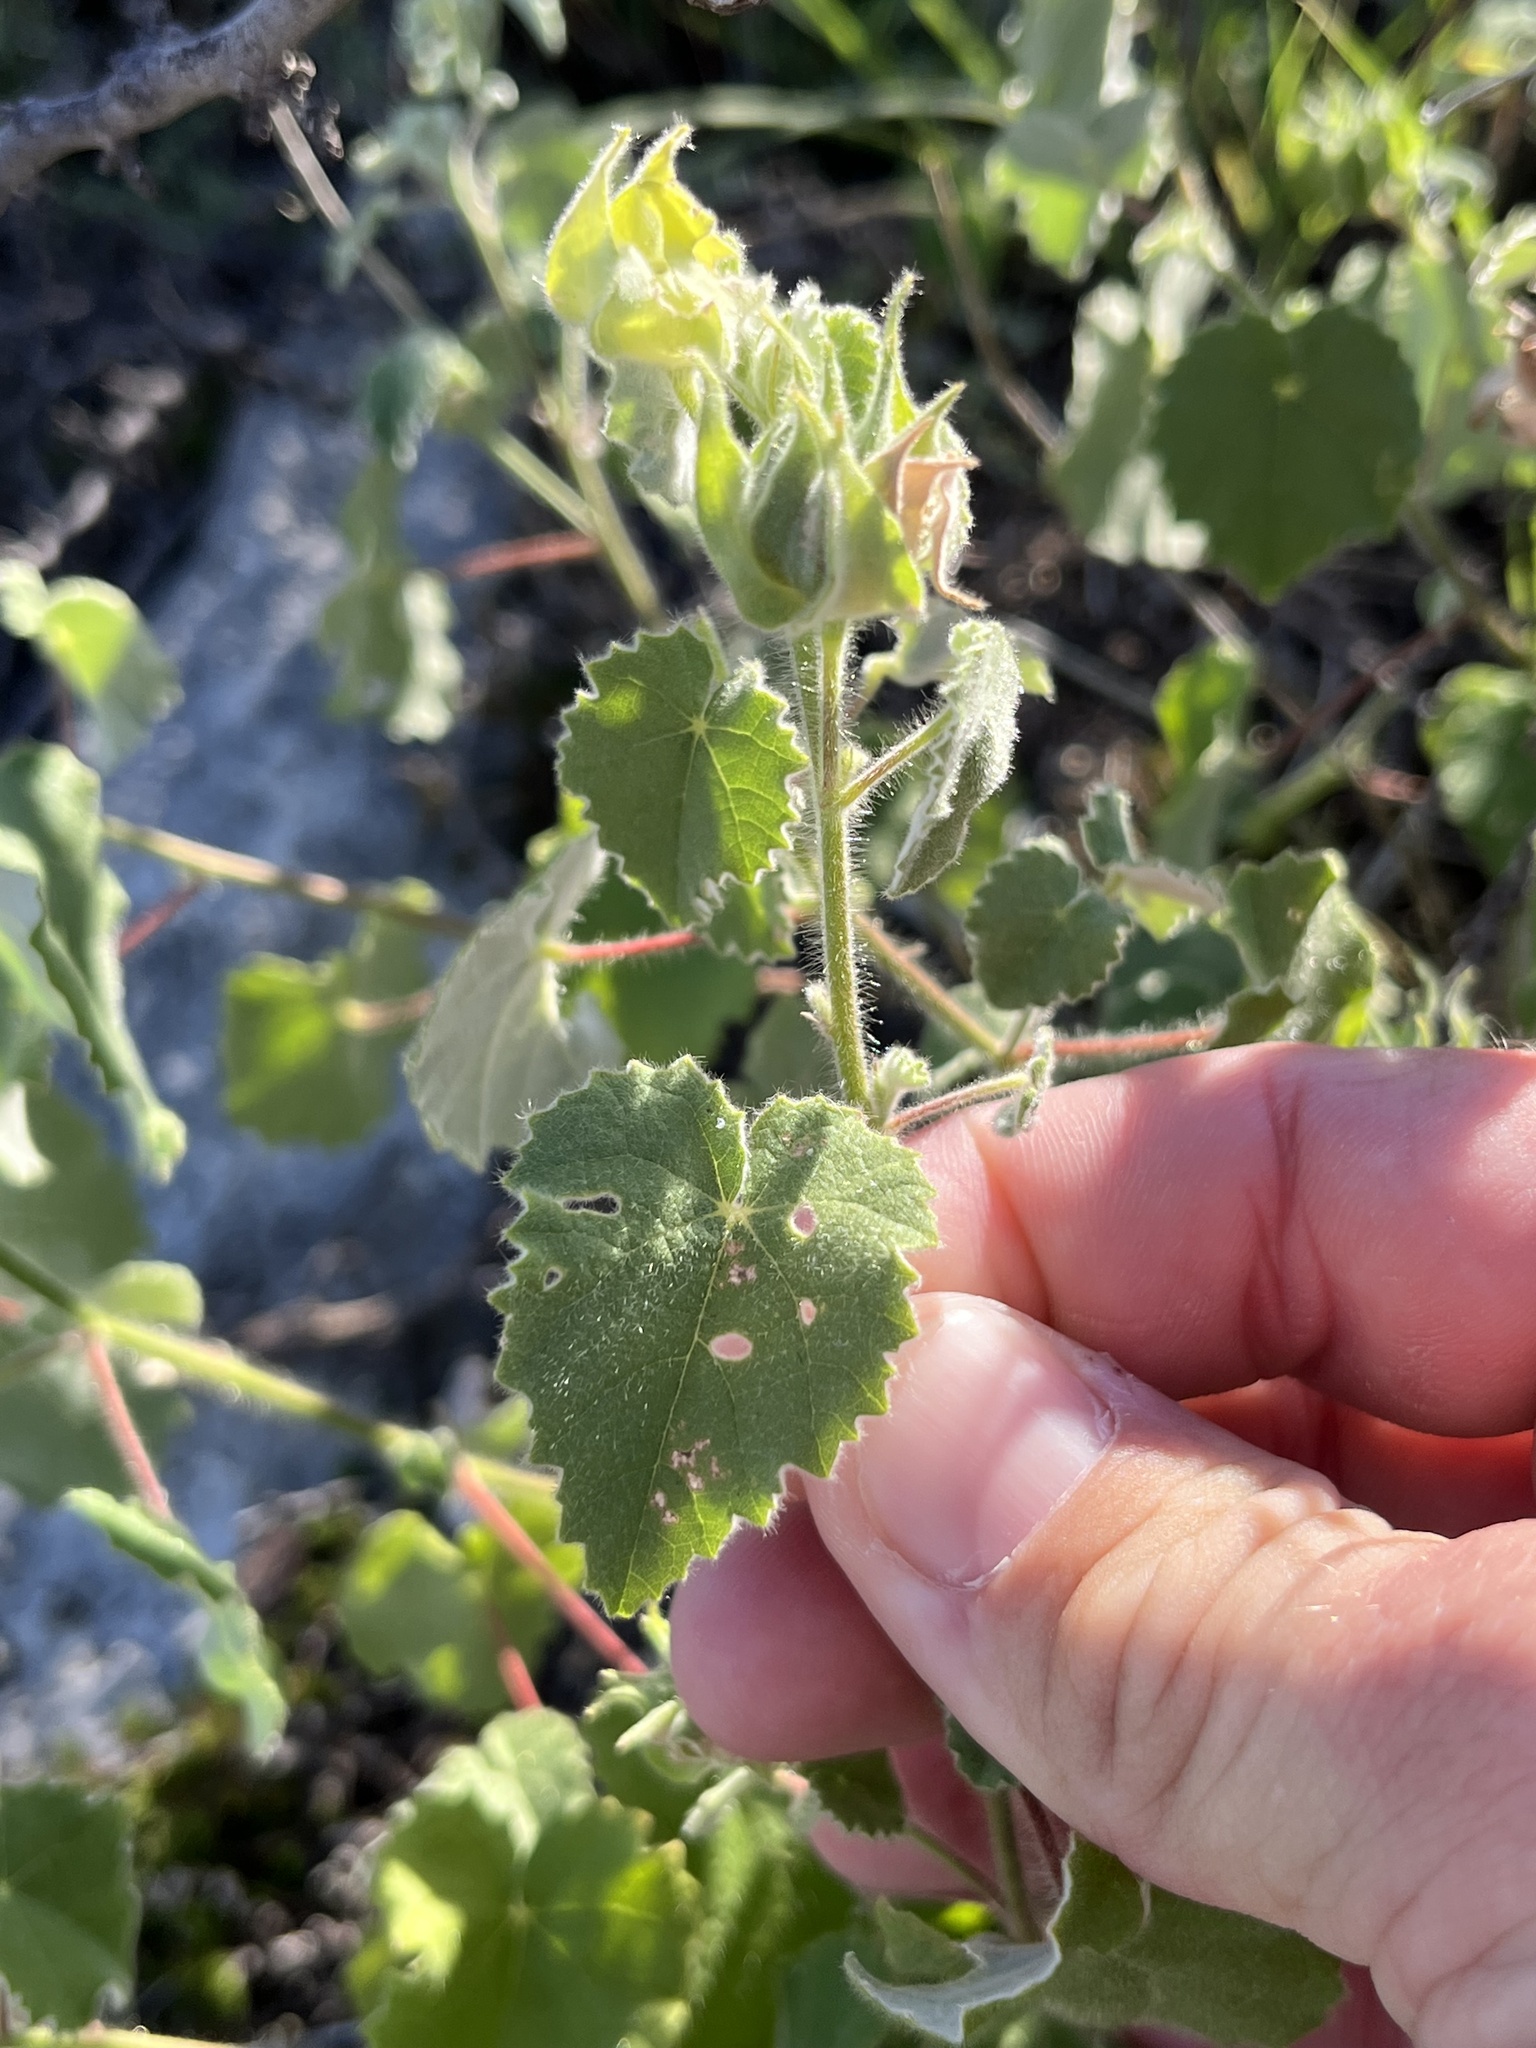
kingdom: Plantae
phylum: Tracheophyta
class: Magnoliopsida
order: Malvales
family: Malvaceae
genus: Abutilon
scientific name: Abutilon wrightii
